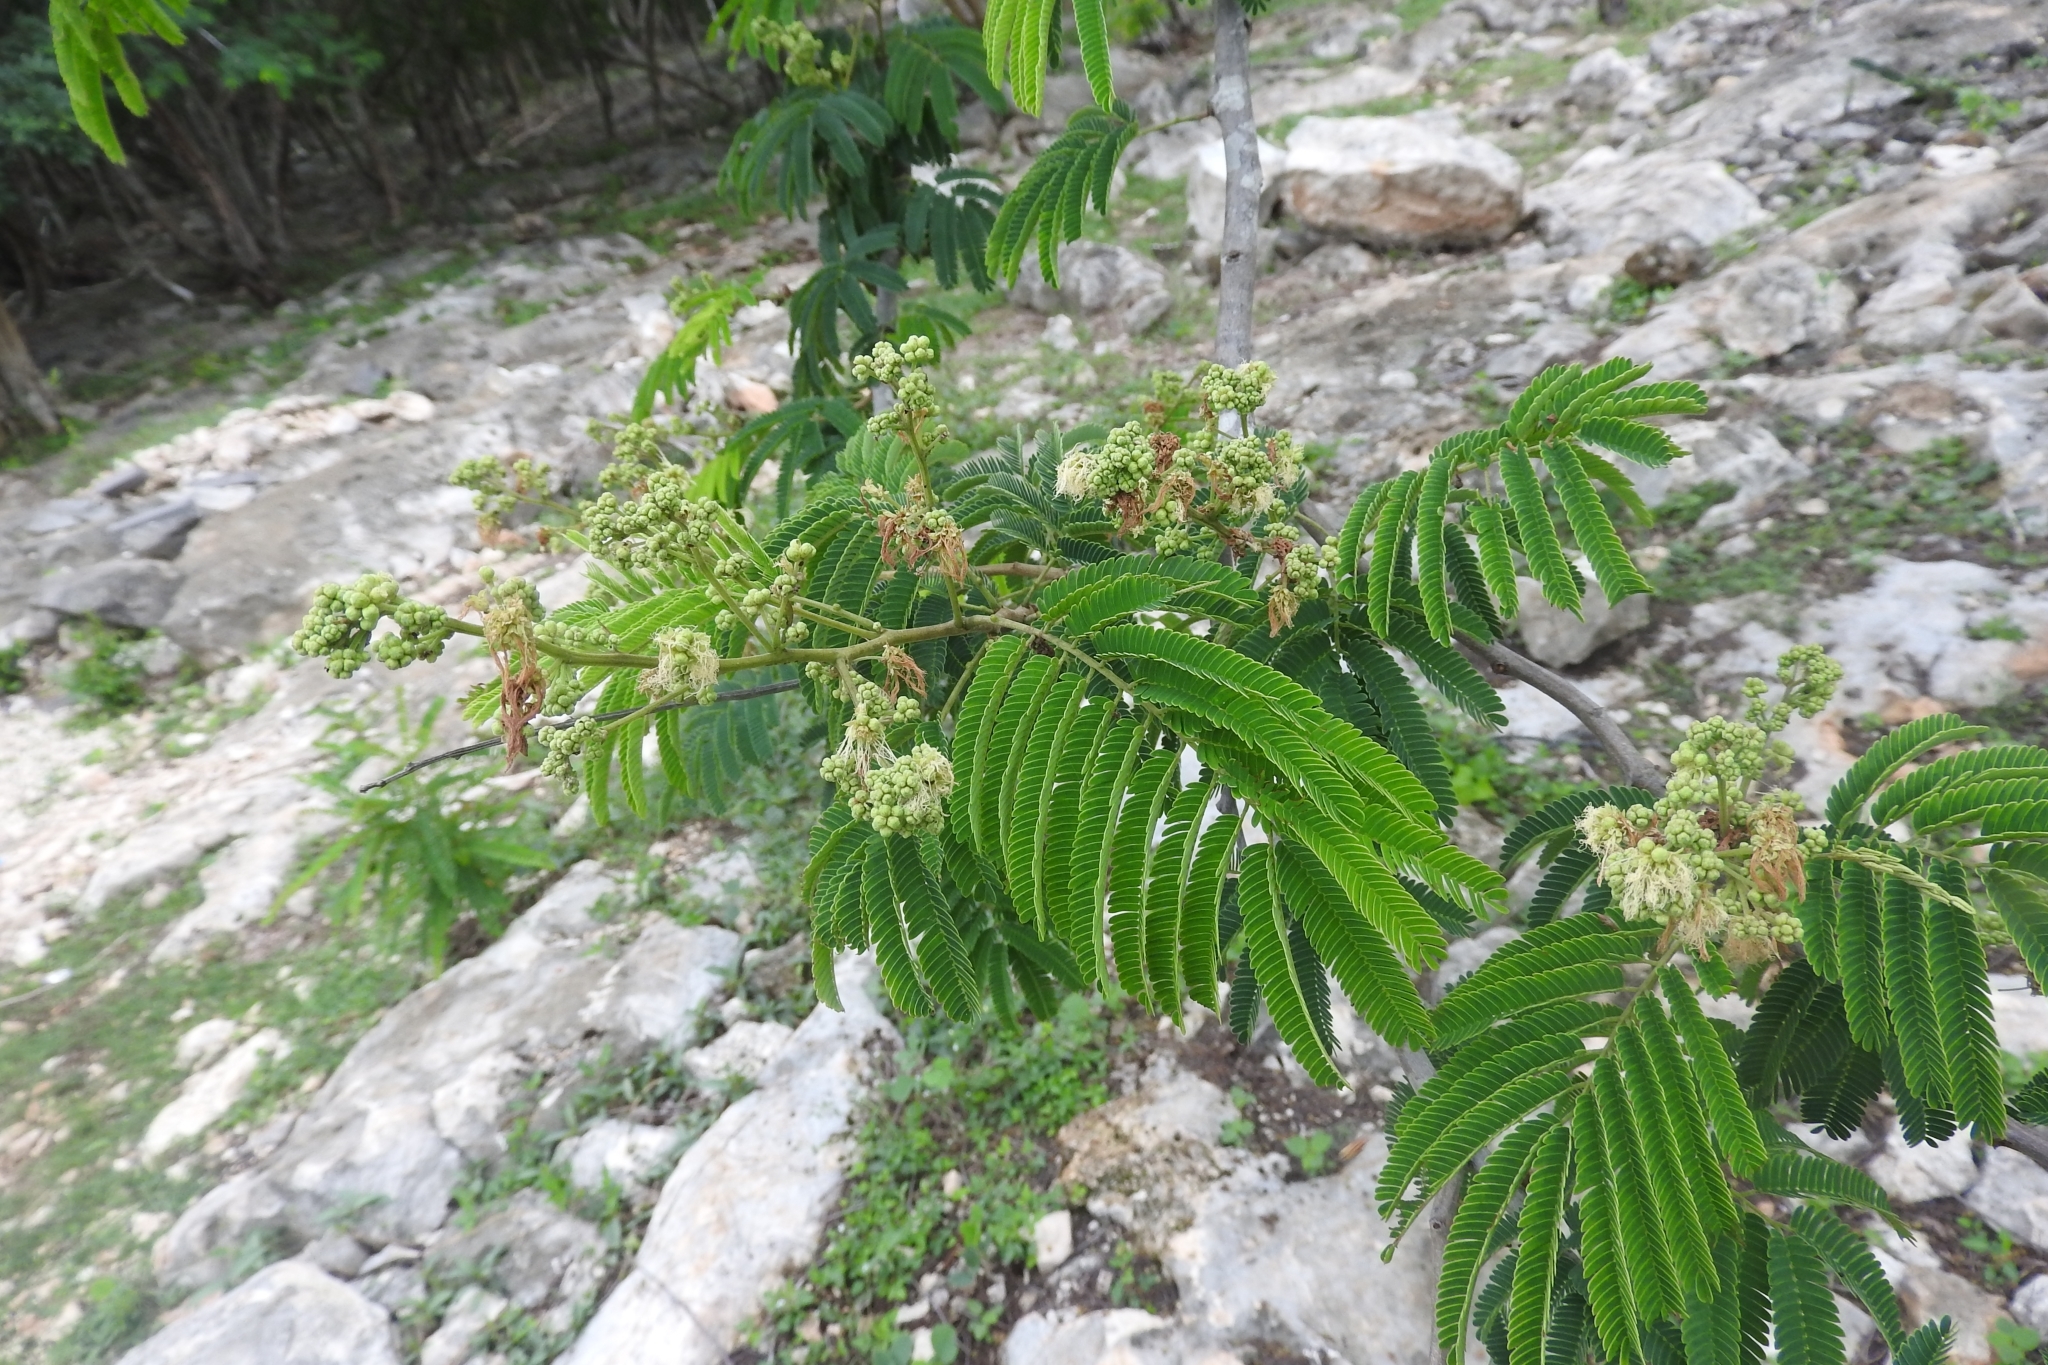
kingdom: Plantae
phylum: Tracheophyta
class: Magnoliopsida
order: Fabales
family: Fabaceae
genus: Lysiloma
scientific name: Lysiloma latisiliquum
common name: Wild tamarind
